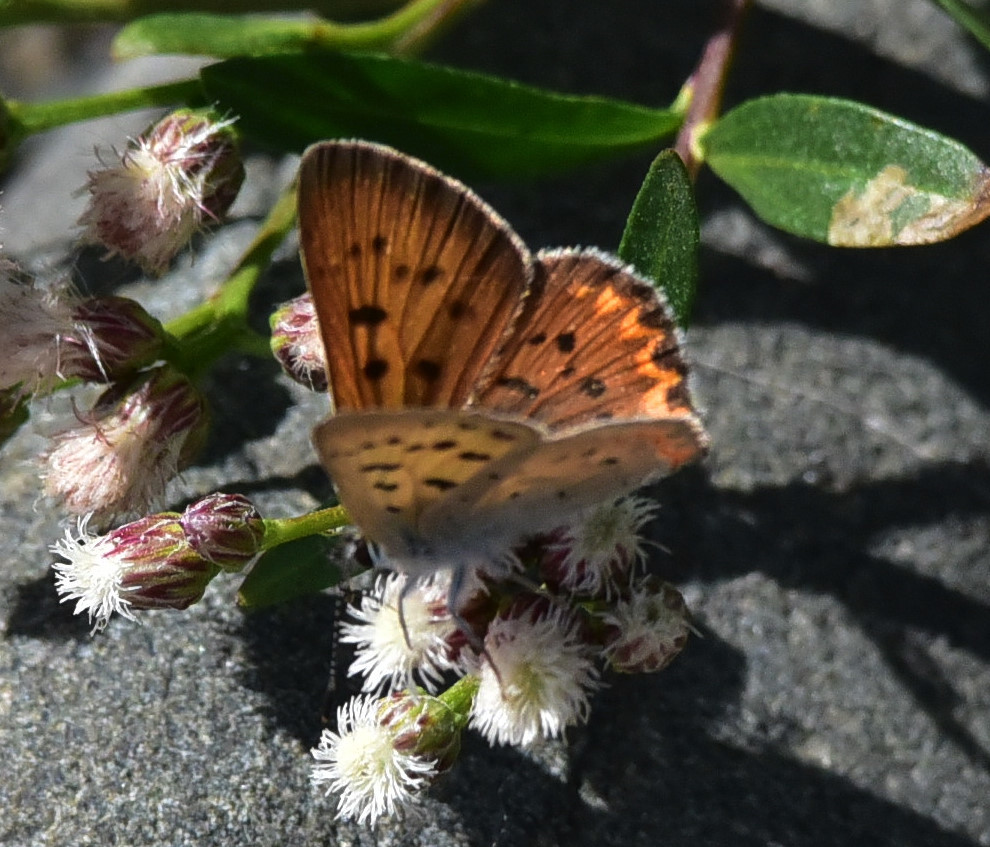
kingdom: Animalia
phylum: Arthropoda
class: Insecta
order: Lepidoptera
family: Lycaenidae
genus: Tharsalea
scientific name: Tharsalea helloides
